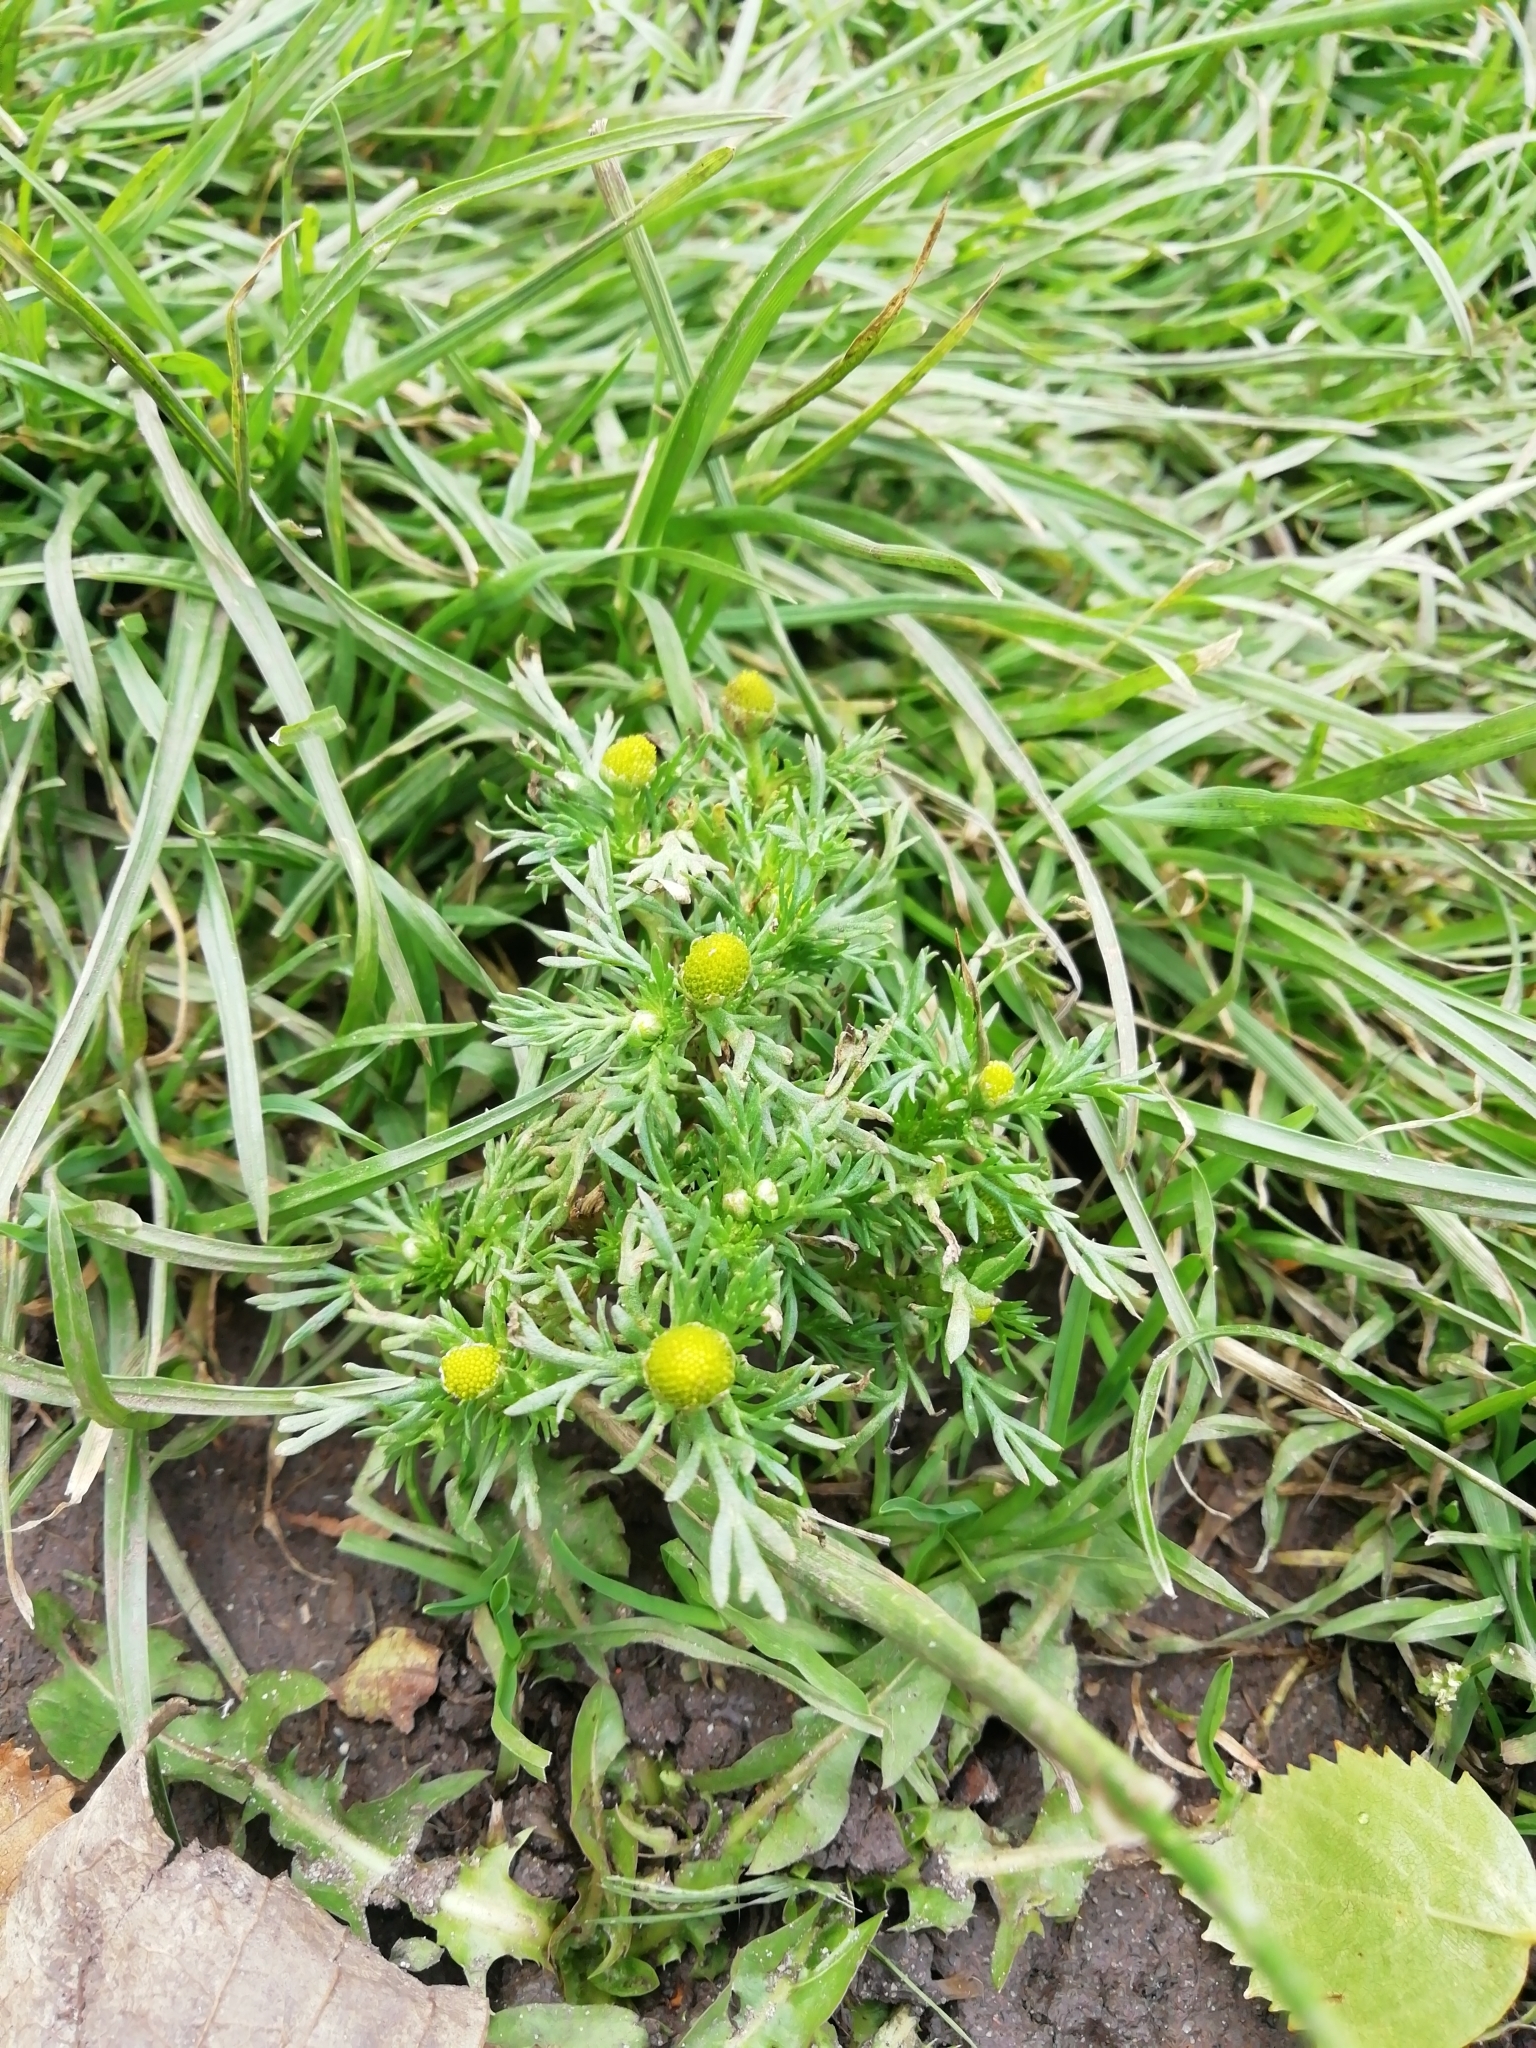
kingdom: Plantae
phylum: Tracheophyta
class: Magnoliopsida
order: Asterales
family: Asteraceae
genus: Matricaria
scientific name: Matricaria discoidea
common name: Disc mayweed
